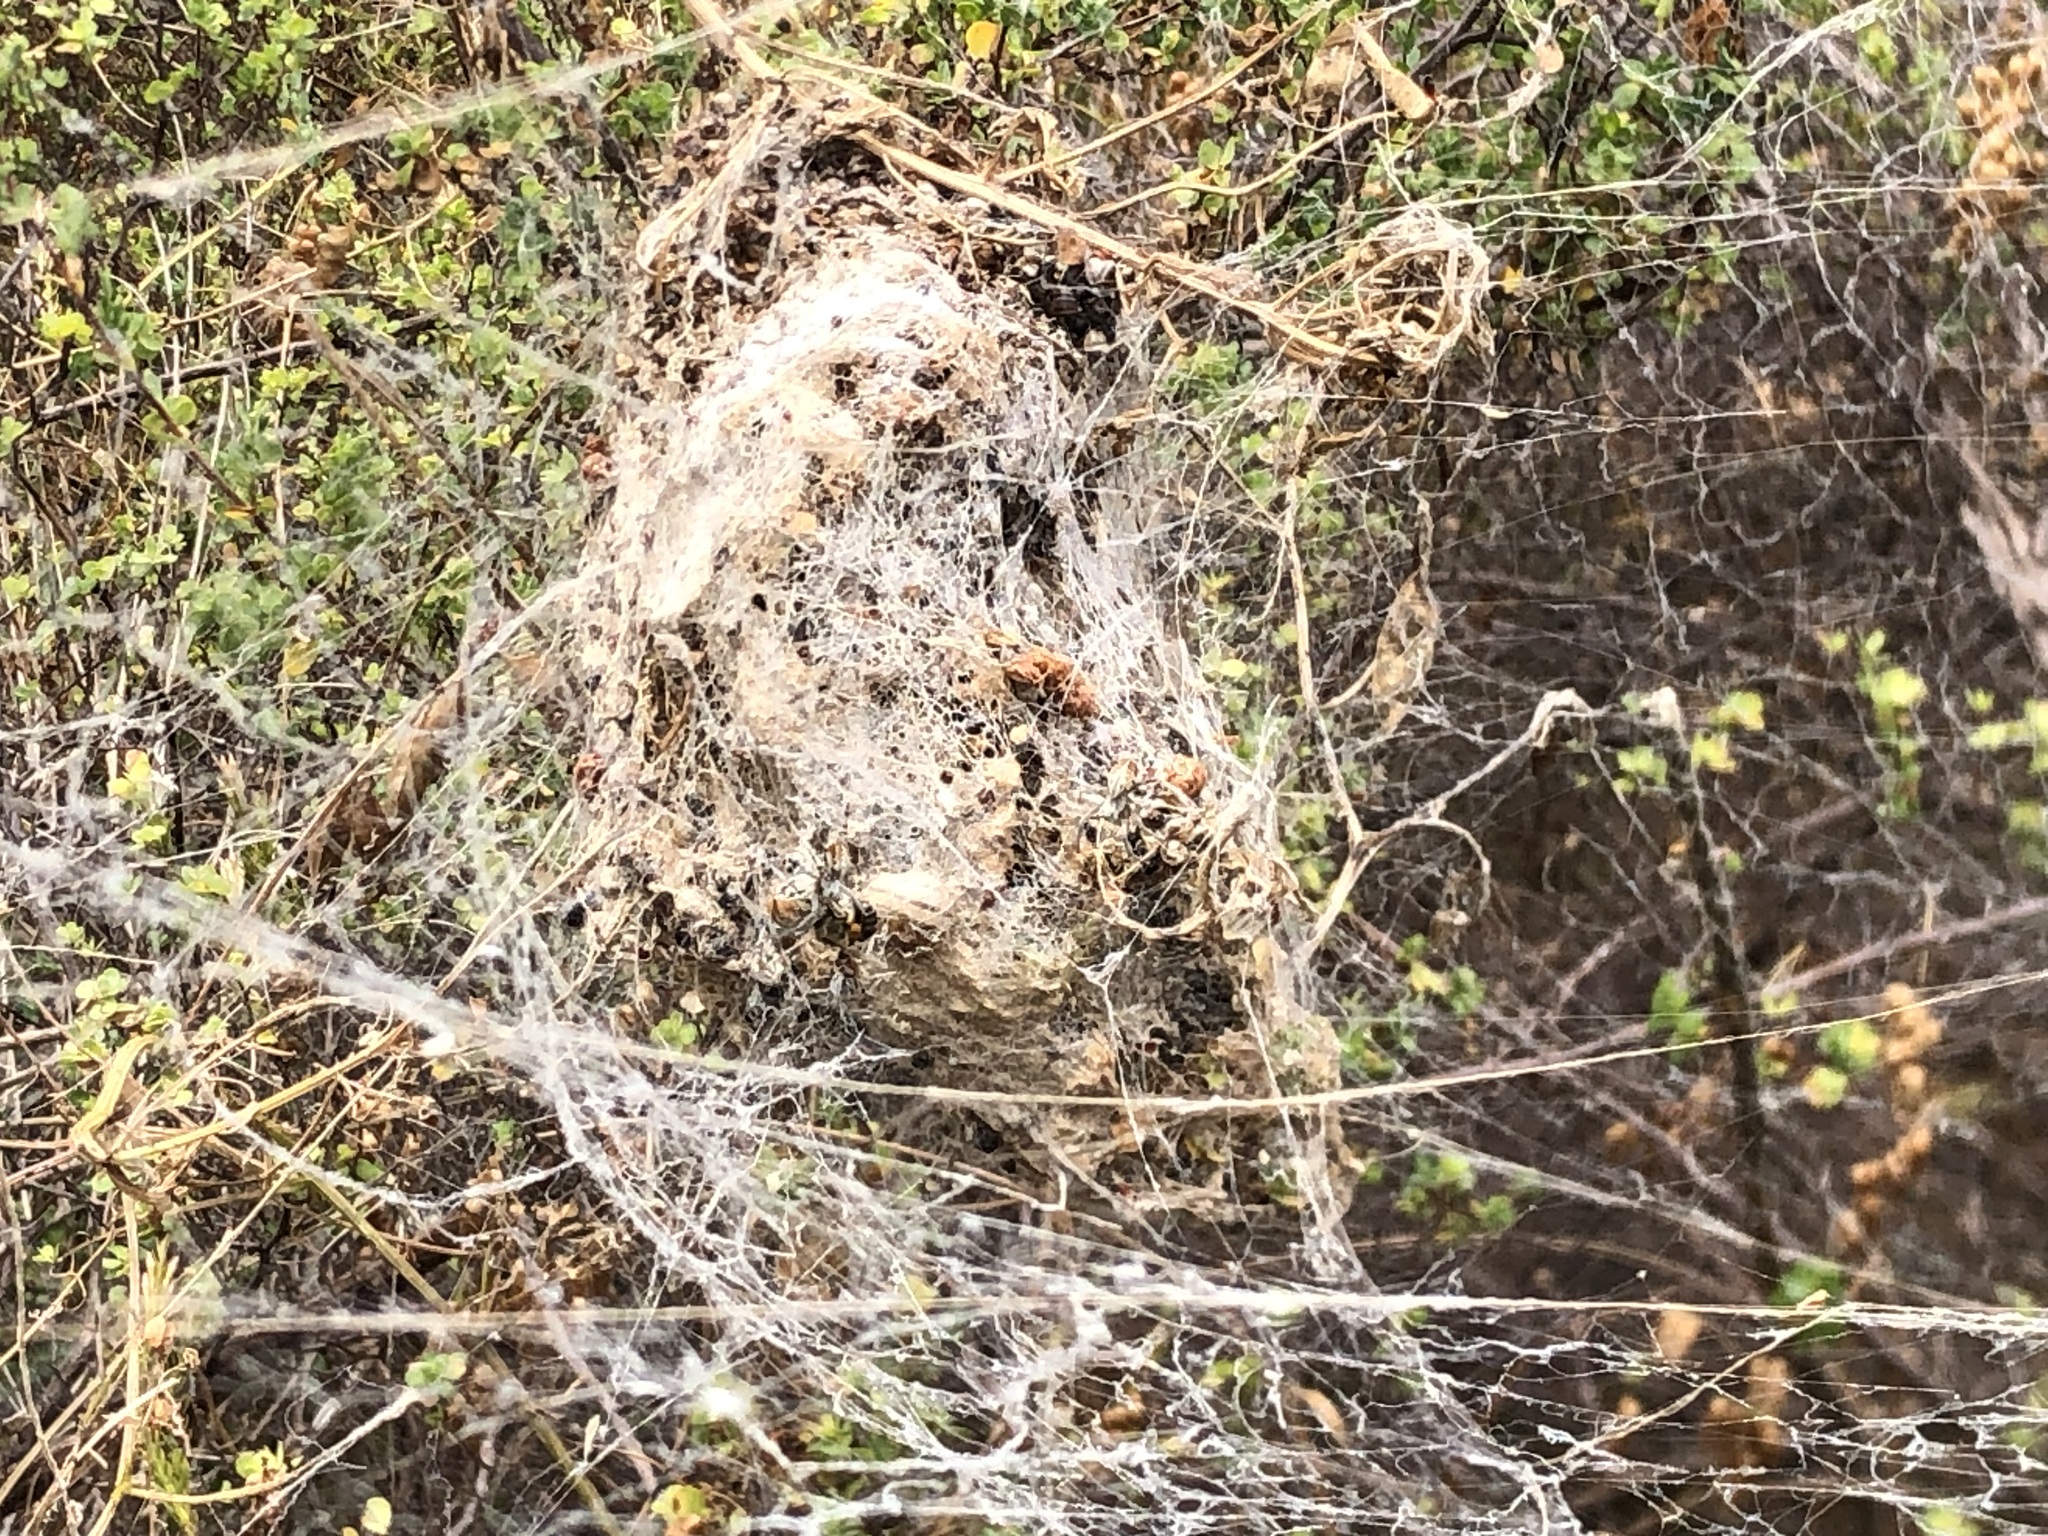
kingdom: Animalia
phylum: Arthropoda
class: Arachnida
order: Araneae
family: Eresidae
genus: Stegodyphus
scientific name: Stegodyphus dumicola
